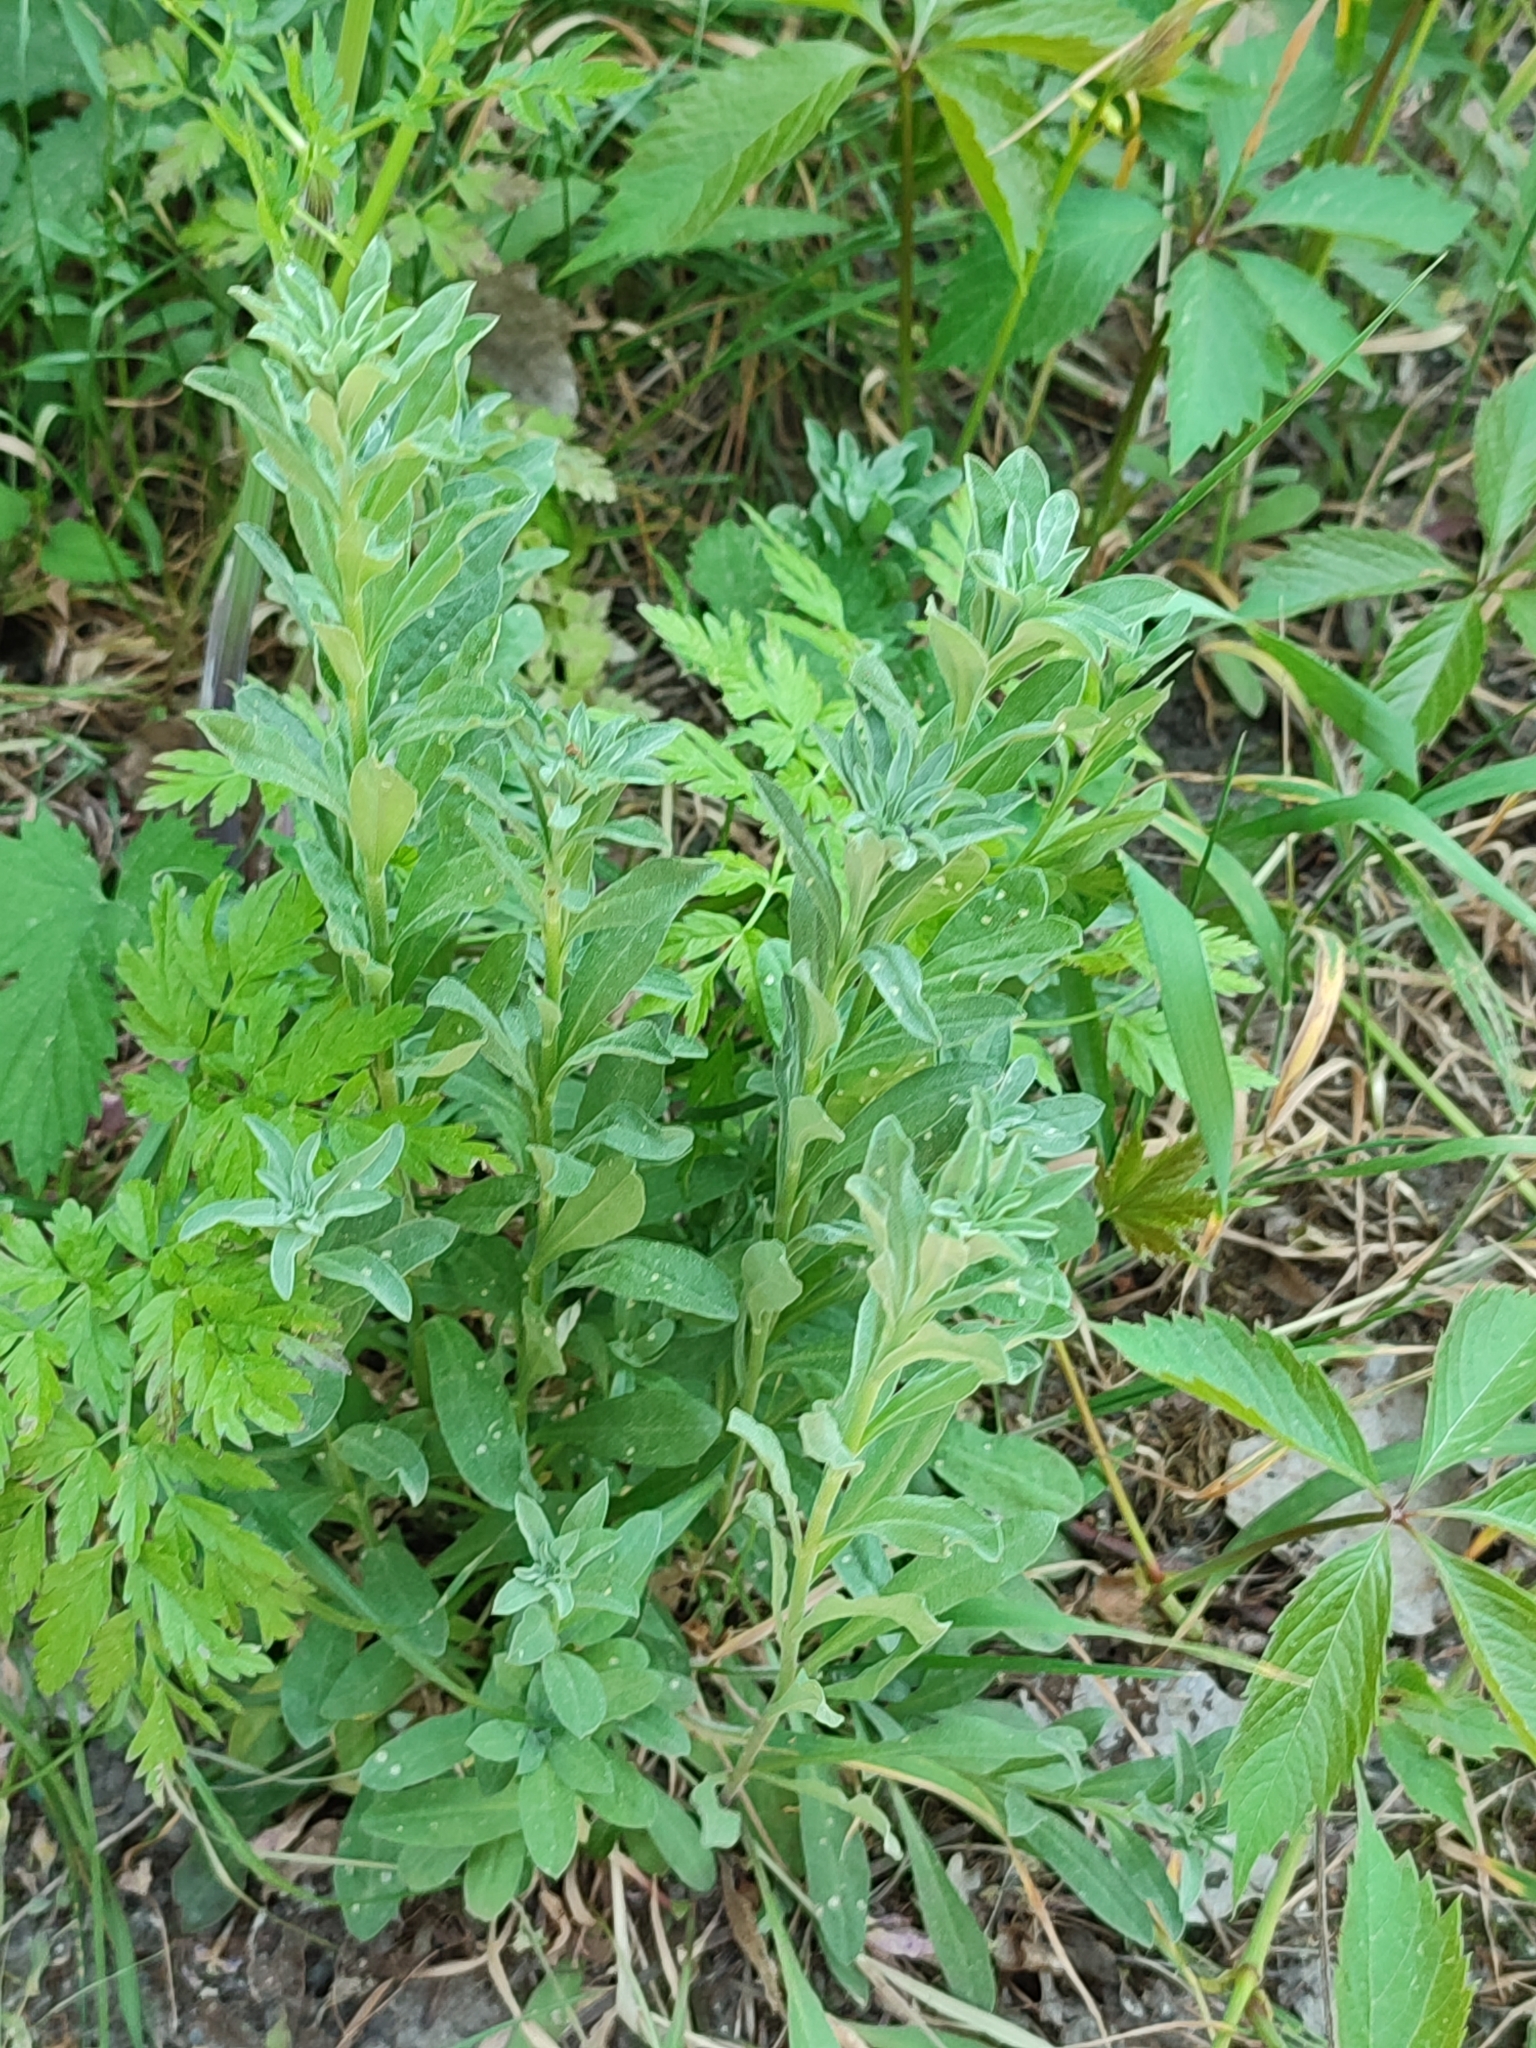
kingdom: Plantae
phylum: Tracheophyta
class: Magnoliopsida
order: Brassicales
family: Brassicaceae
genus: Berteroa
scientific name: Berteroa incana
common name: Hoary alison
